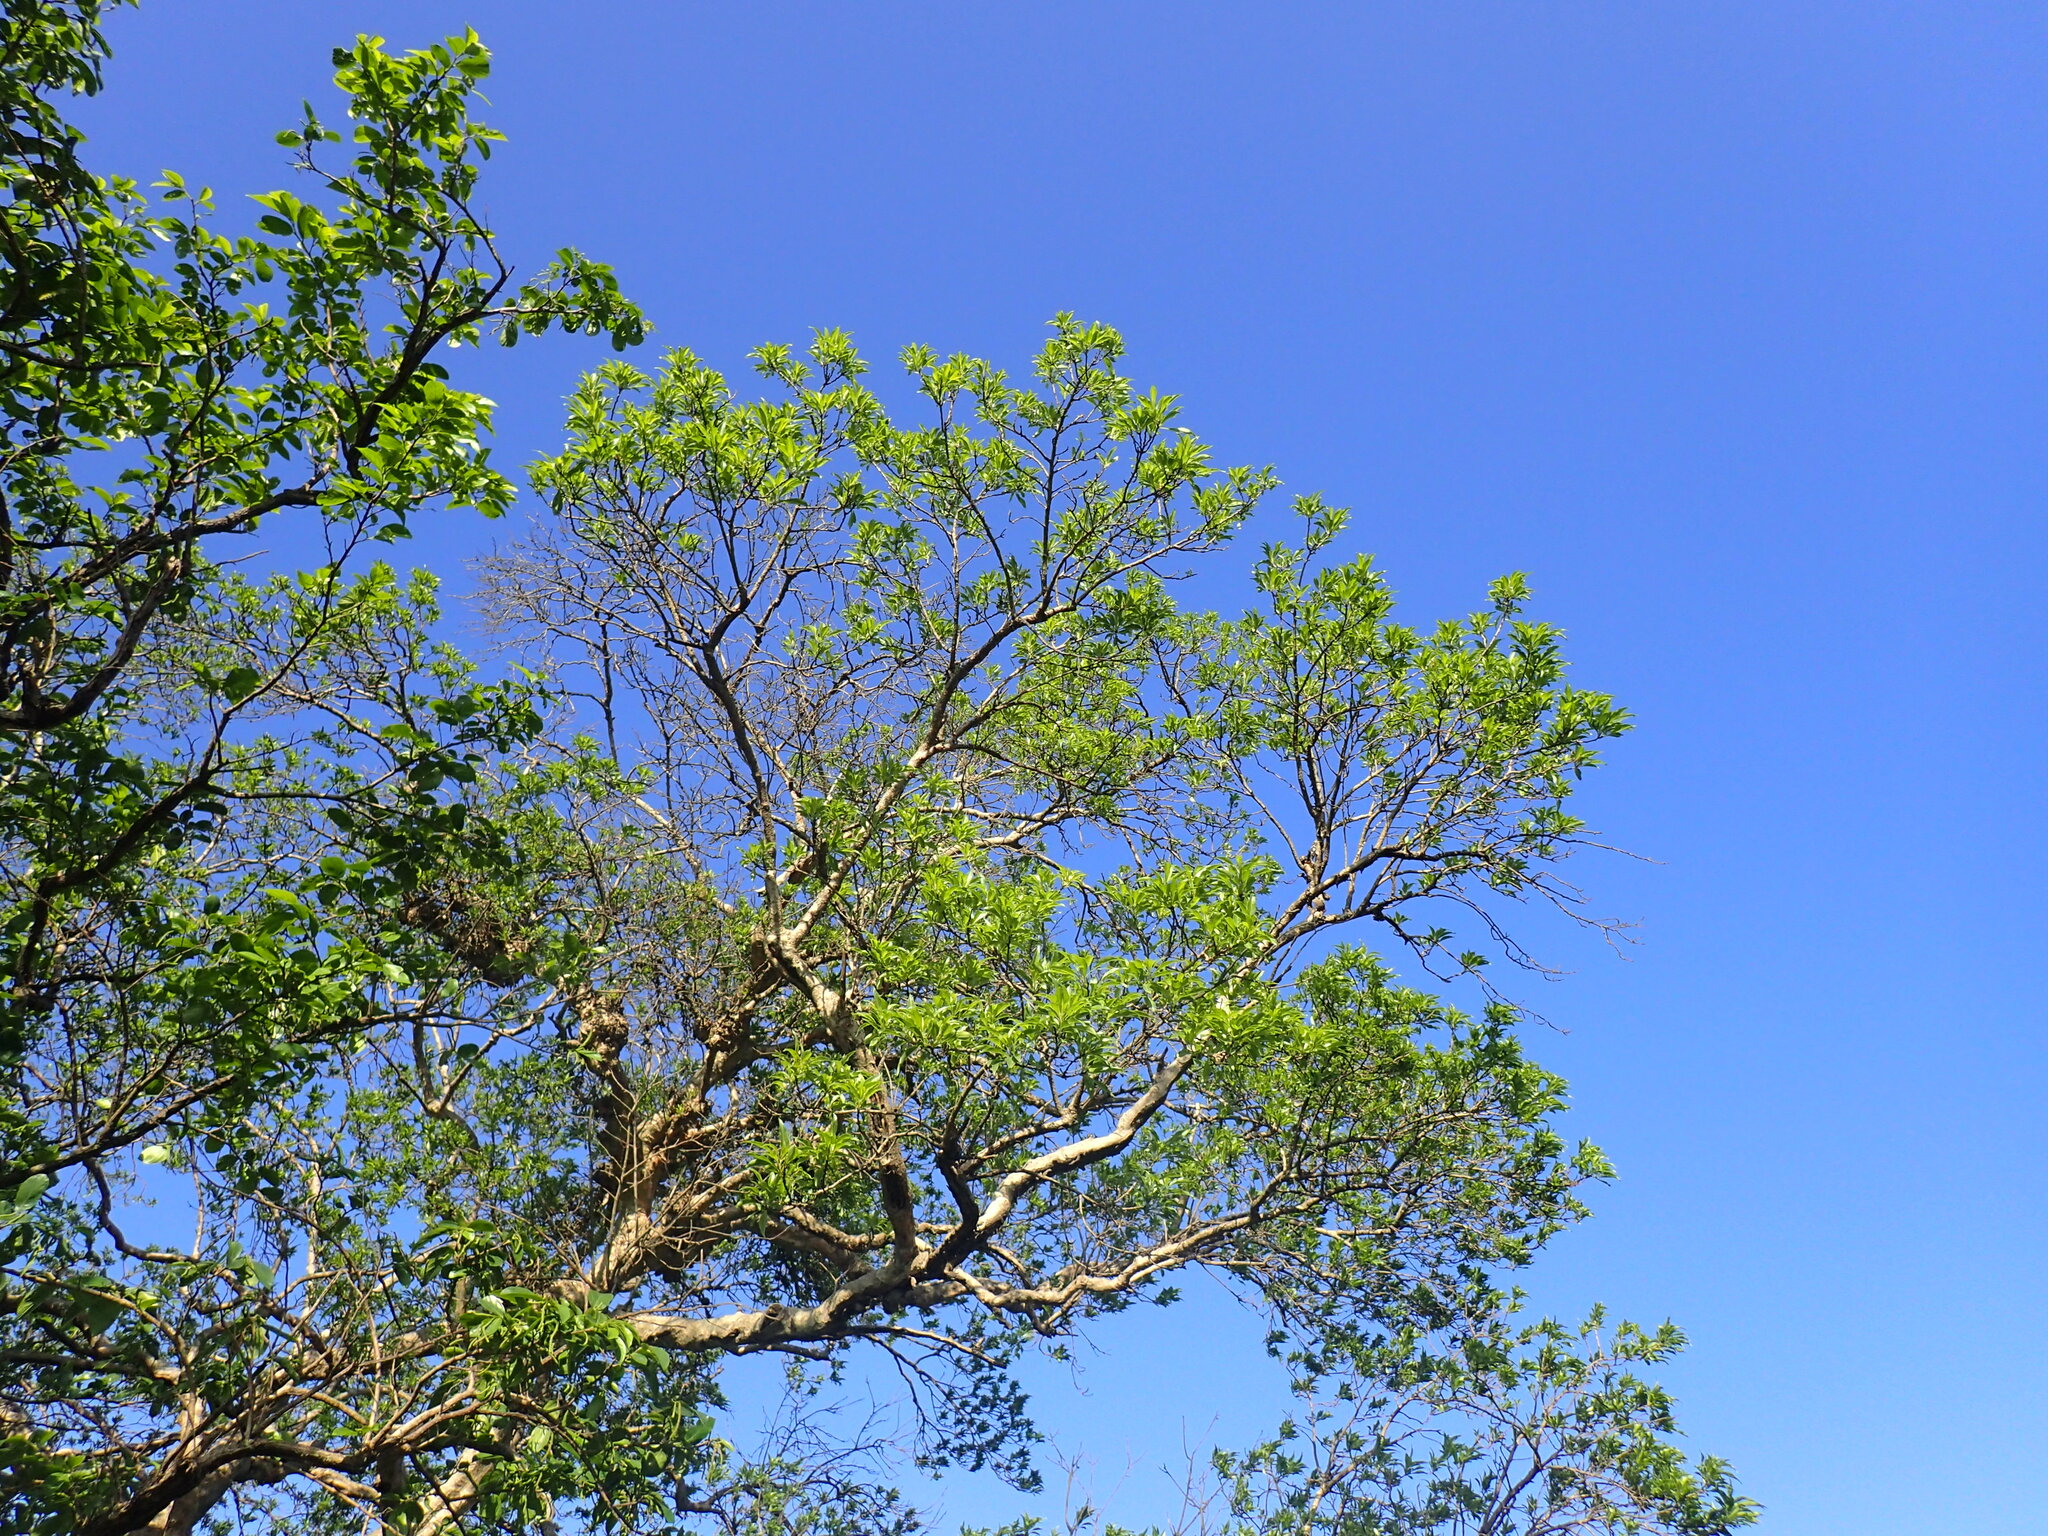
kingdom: Plantae
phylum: Tracheophyta
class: Magnoliopsida
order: Myrtales
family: Myrtaceae
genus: Heteropyxis
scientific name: Heteropyxis natalensis
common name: Lavender tree
